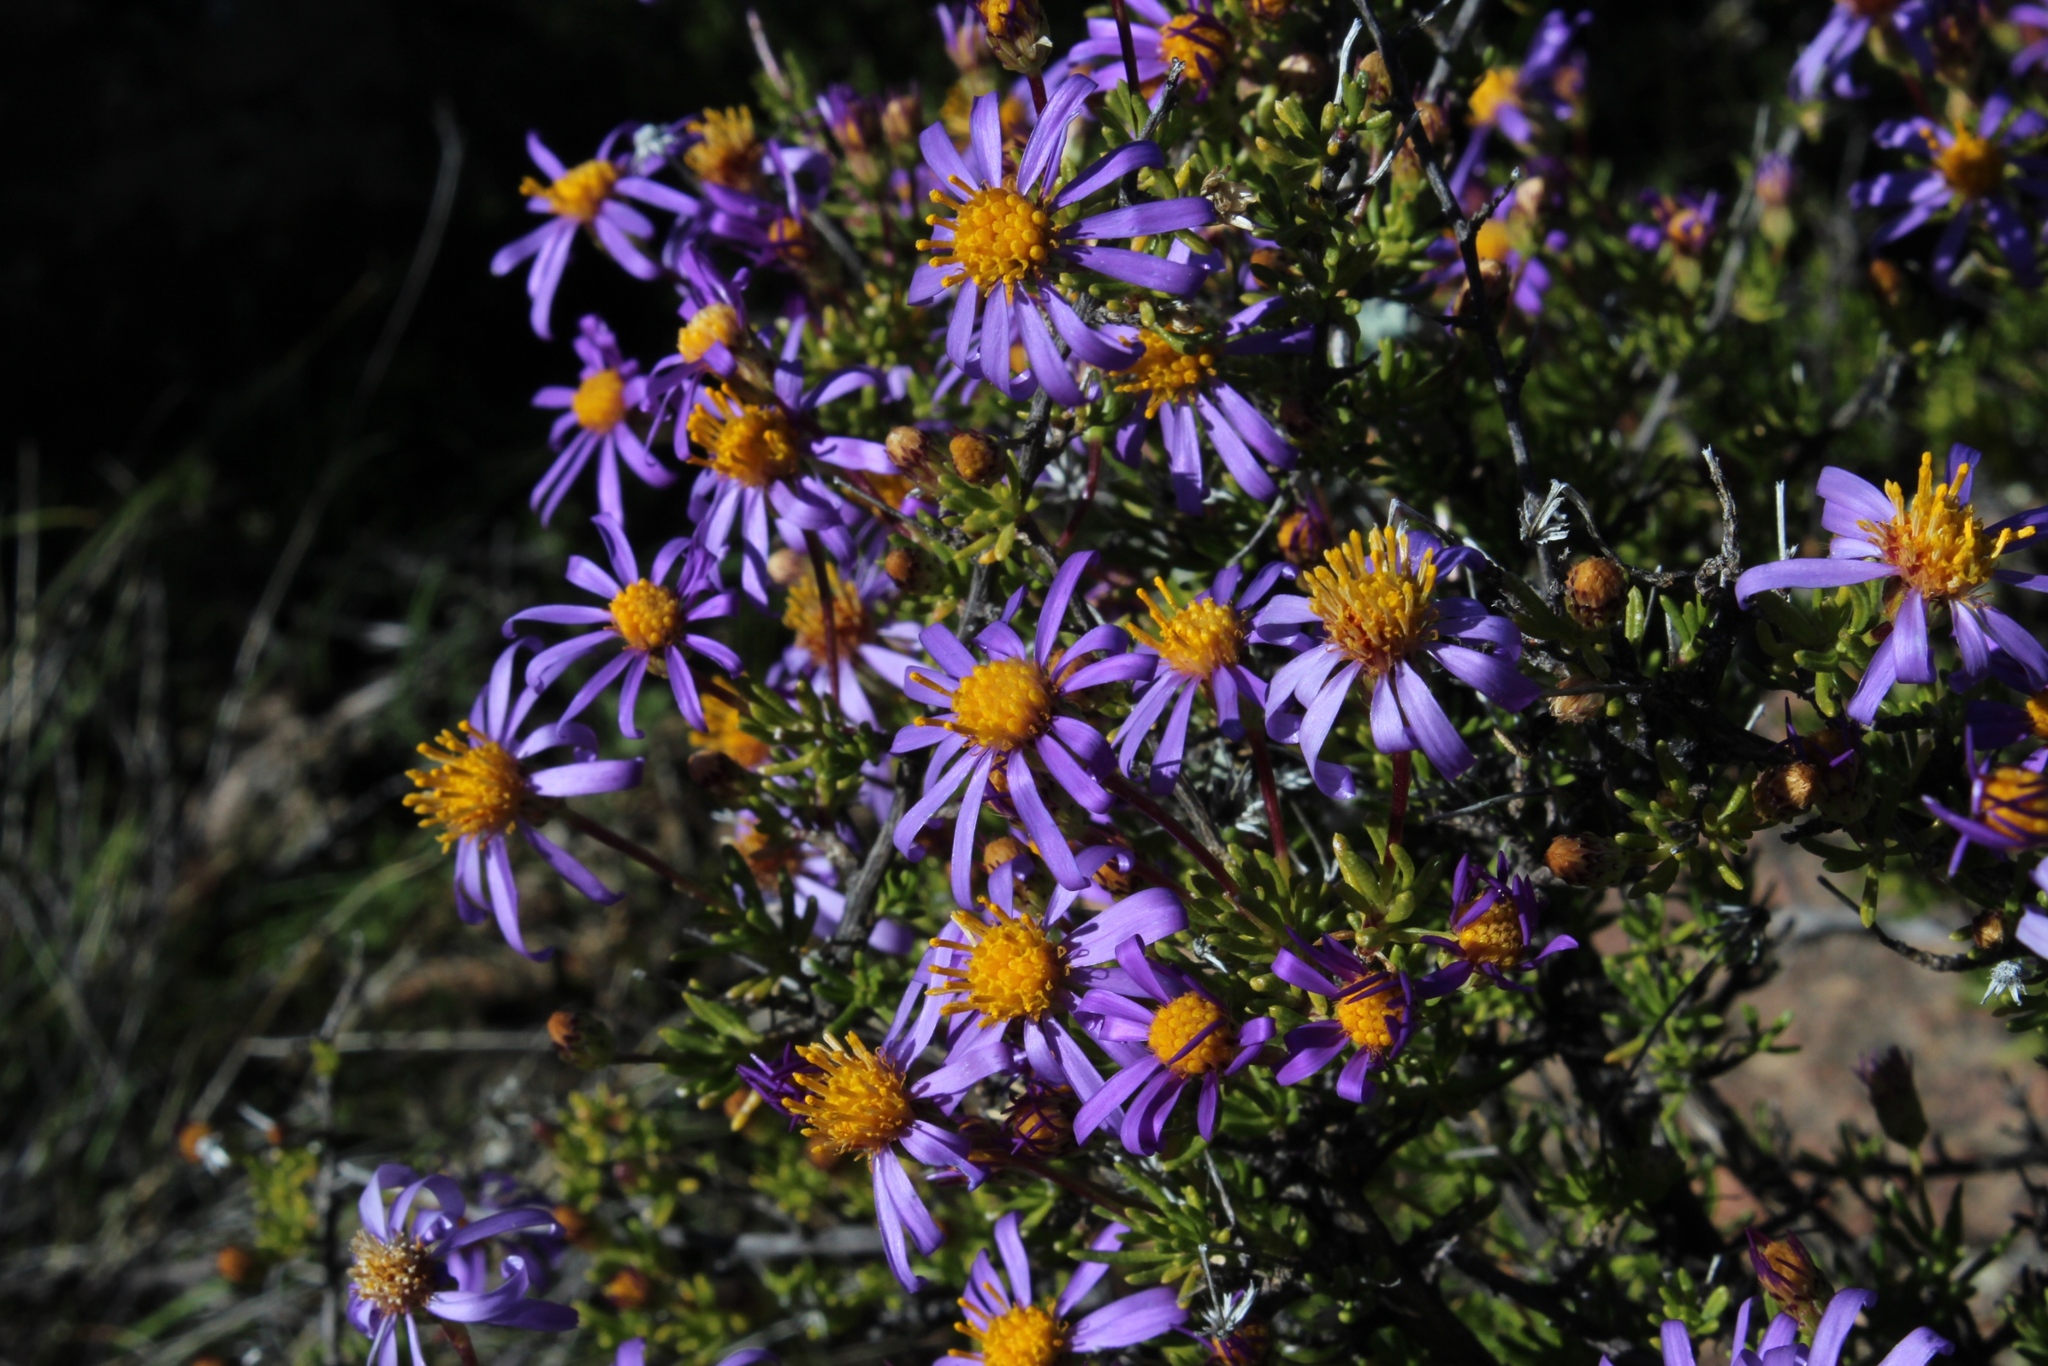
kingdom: Plantae
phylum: Tracheophyta
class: Magnoliopsida
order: Asterales
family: Asteraceae
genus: Felicia
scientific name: Felicia filifolia
